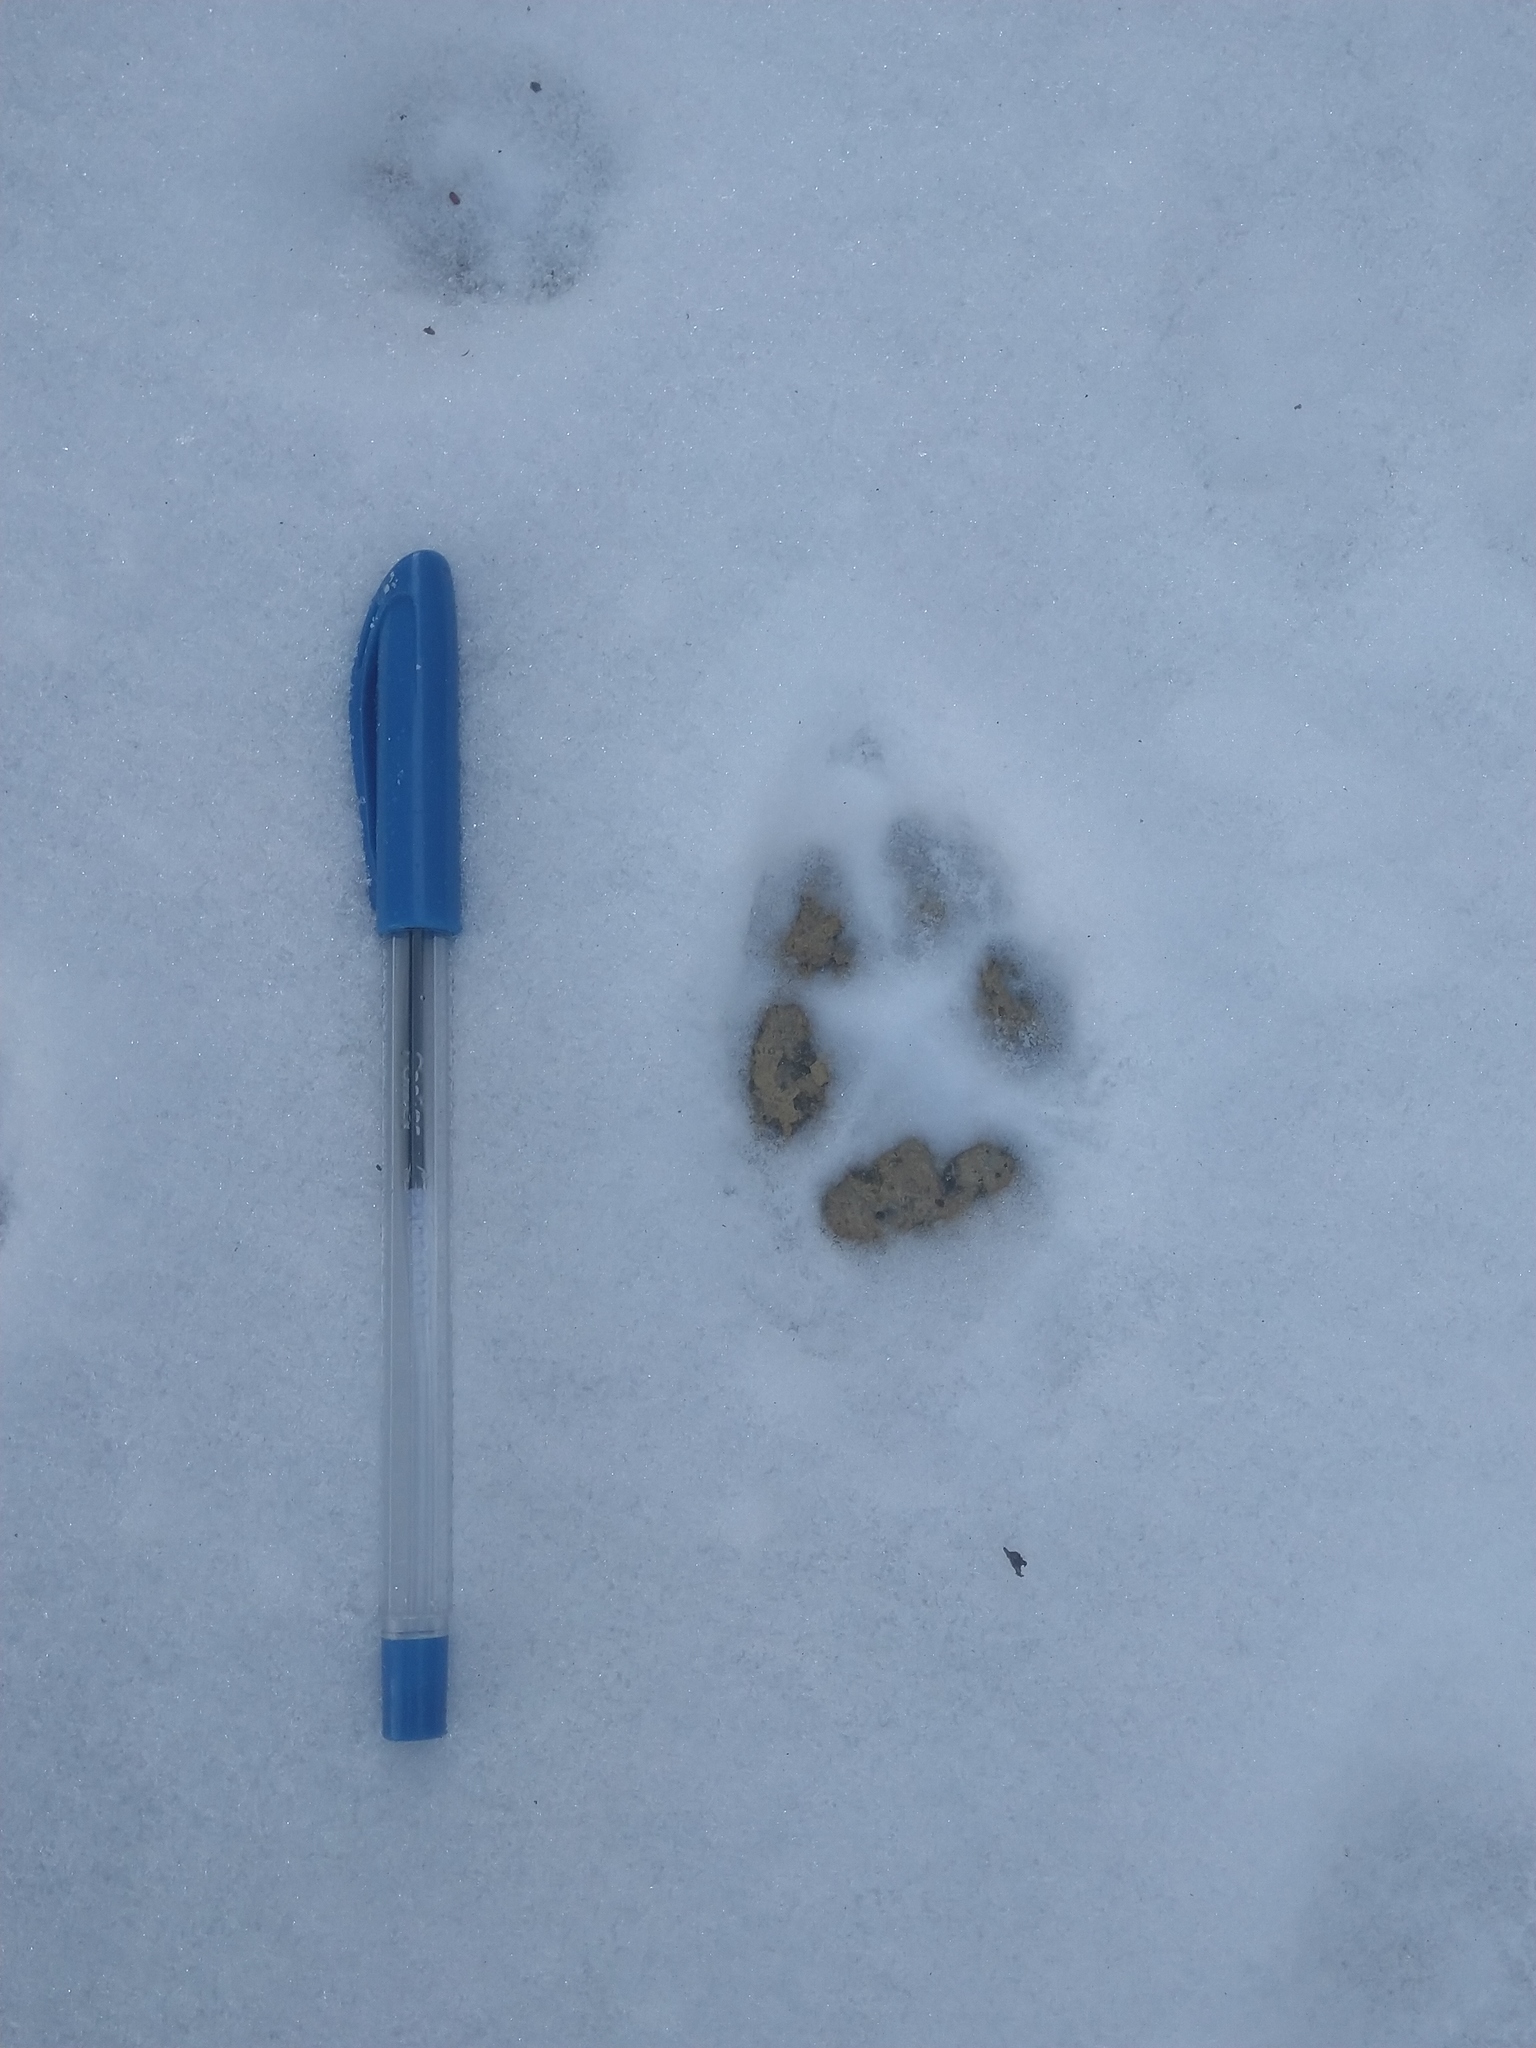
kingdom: Animalia
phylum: Chordata
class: Mammalia
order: Carnivora
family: Canidae
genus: Vulpes
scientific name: Vulpes vulpes
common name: Red fox
